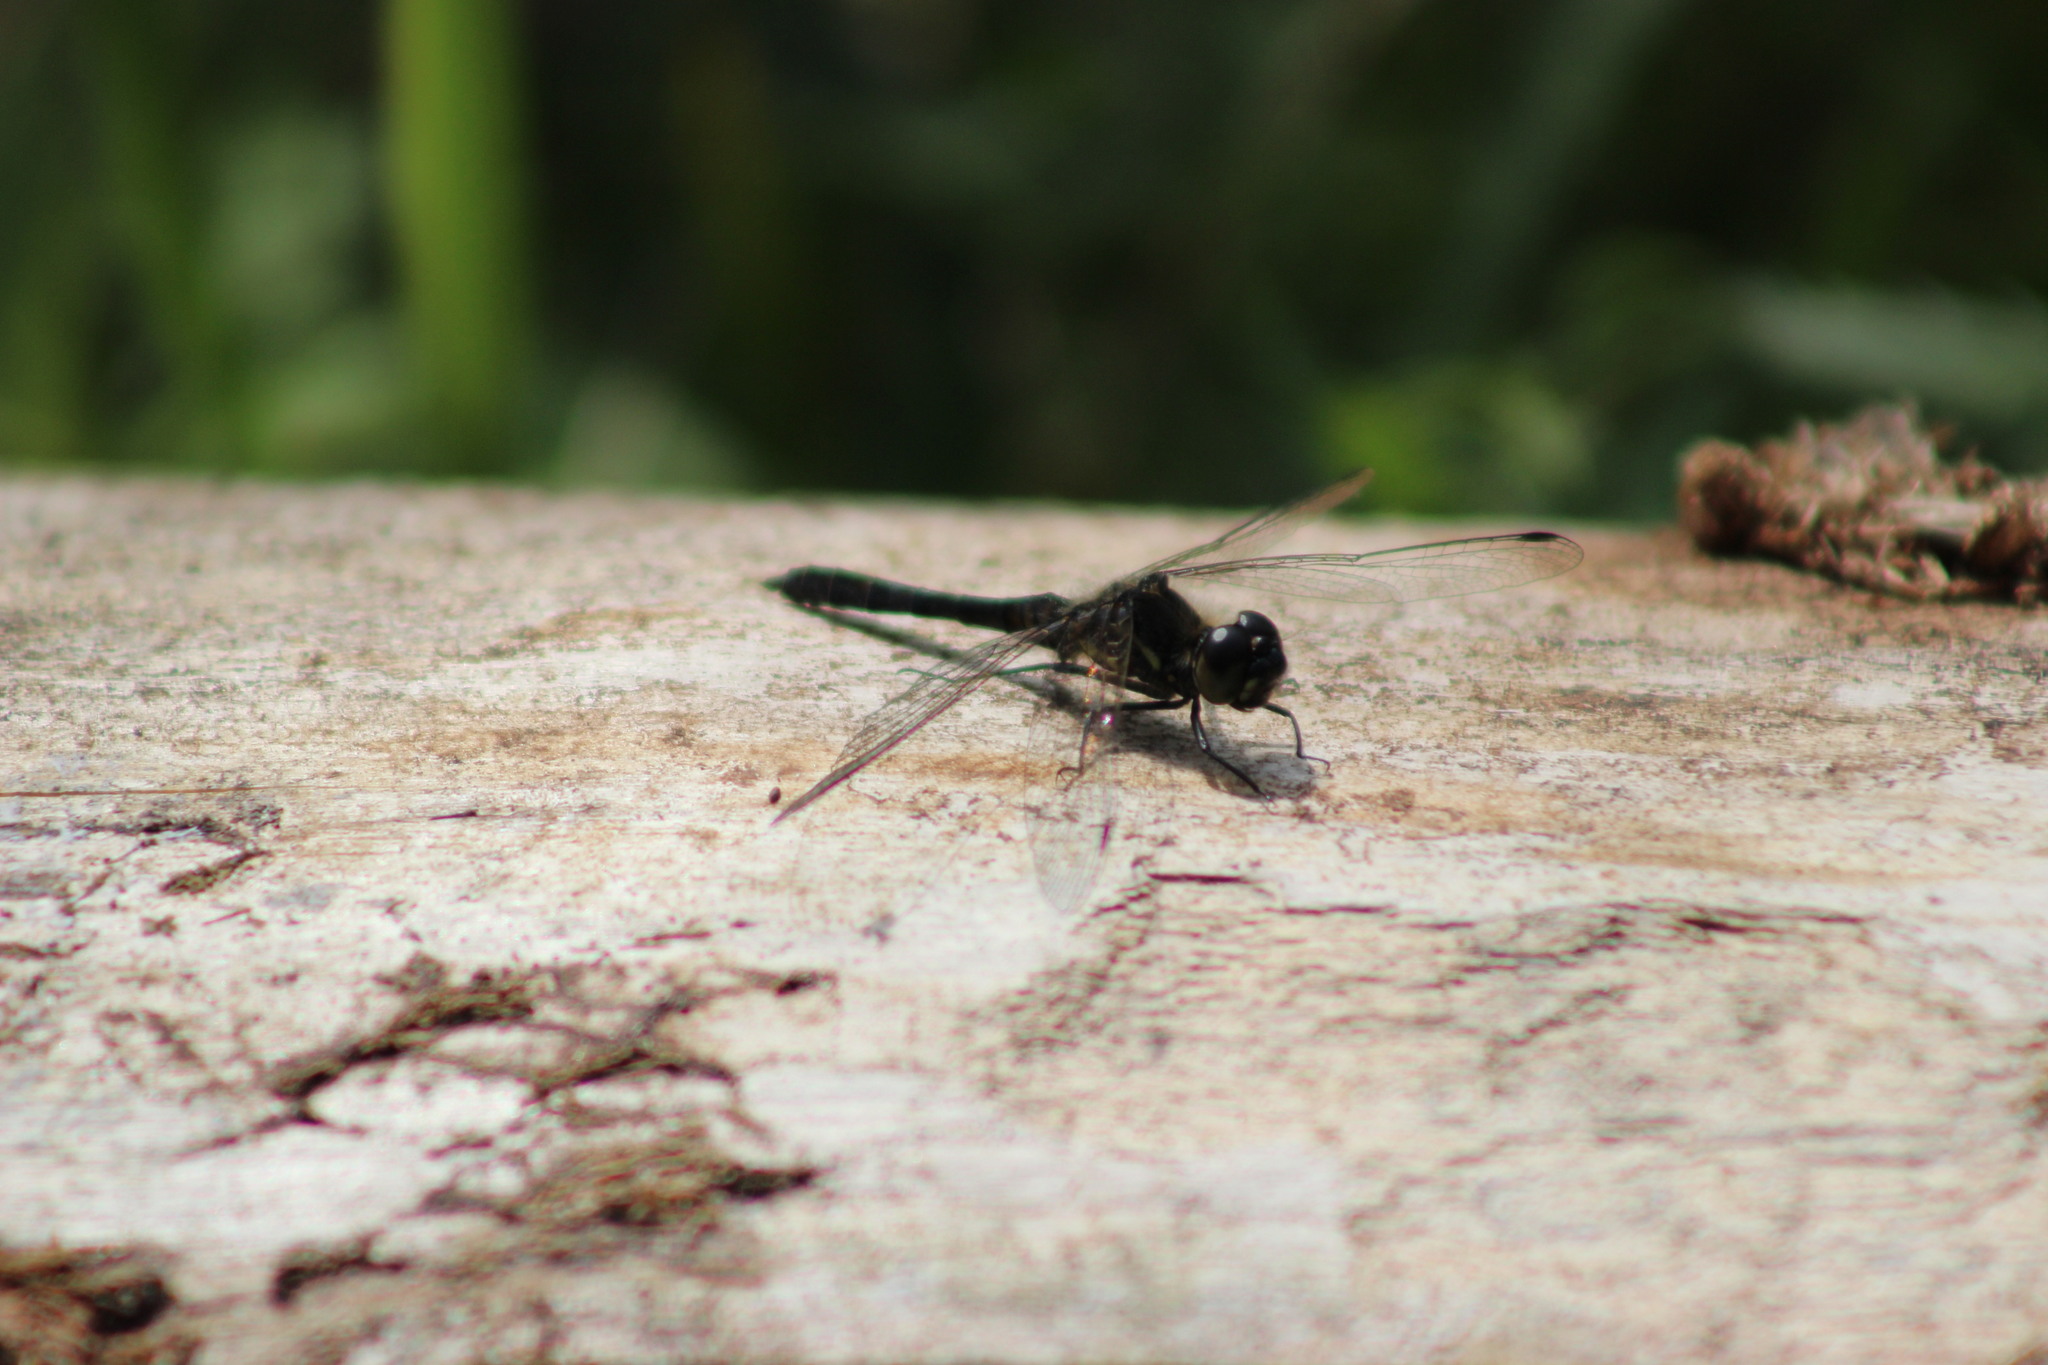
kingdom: Animalia
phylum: Arthropoda
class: Insecta
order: Odonata
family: Libellulidae
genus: Sympetrum
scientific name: Sympetrum danae
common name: Black darter
